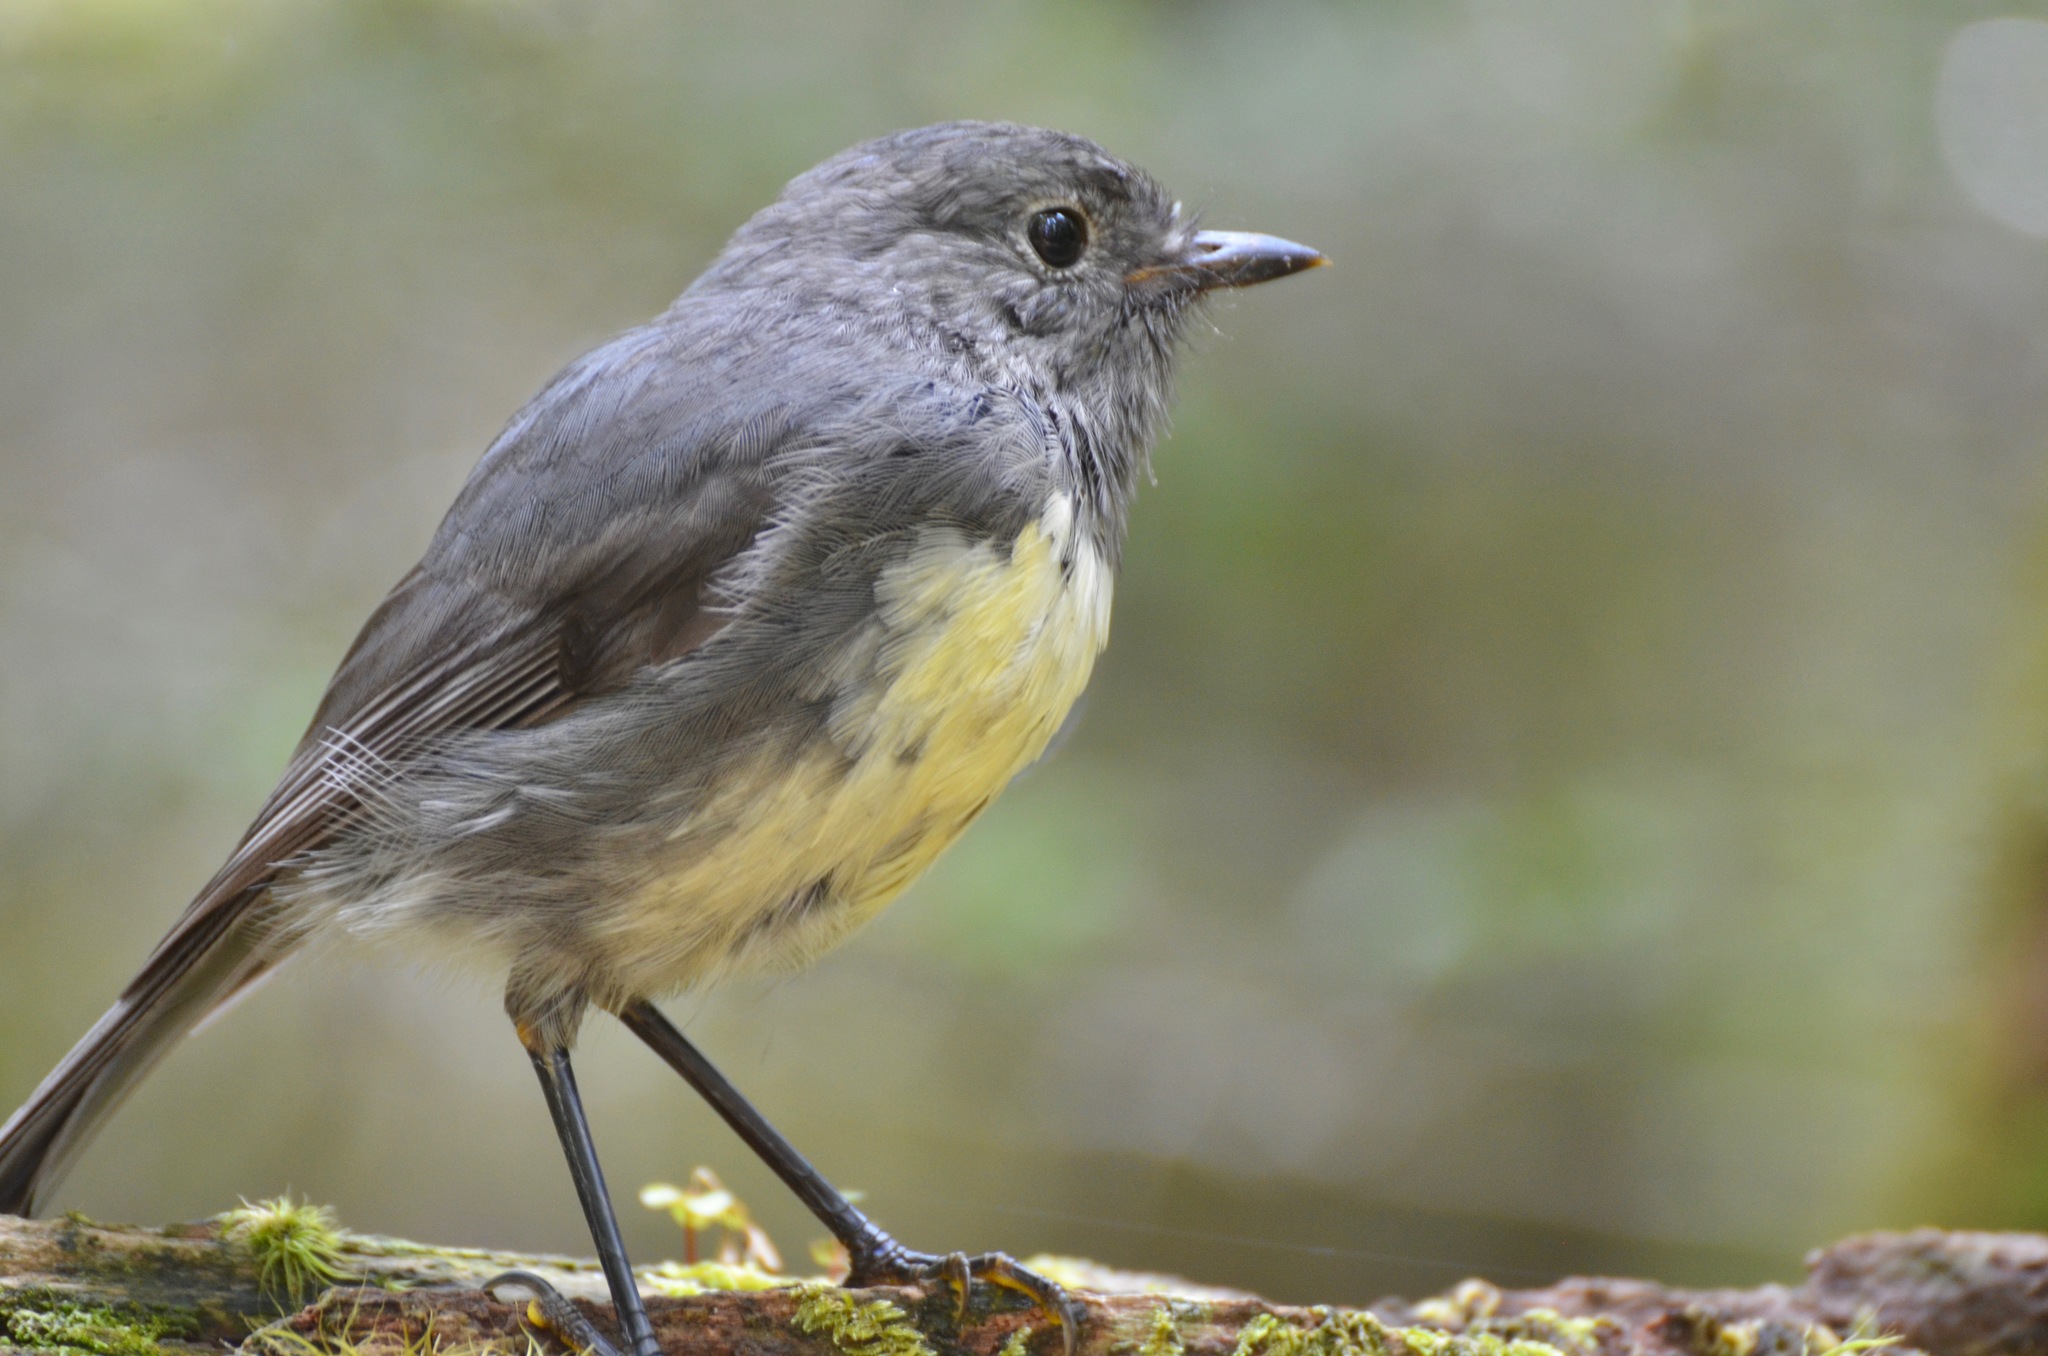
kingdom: Animalia
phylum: Chordata
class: Aves
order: Passeriformes
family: Petroicidae
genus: Petroica
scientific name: Petroica australis
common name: New zealand robin
